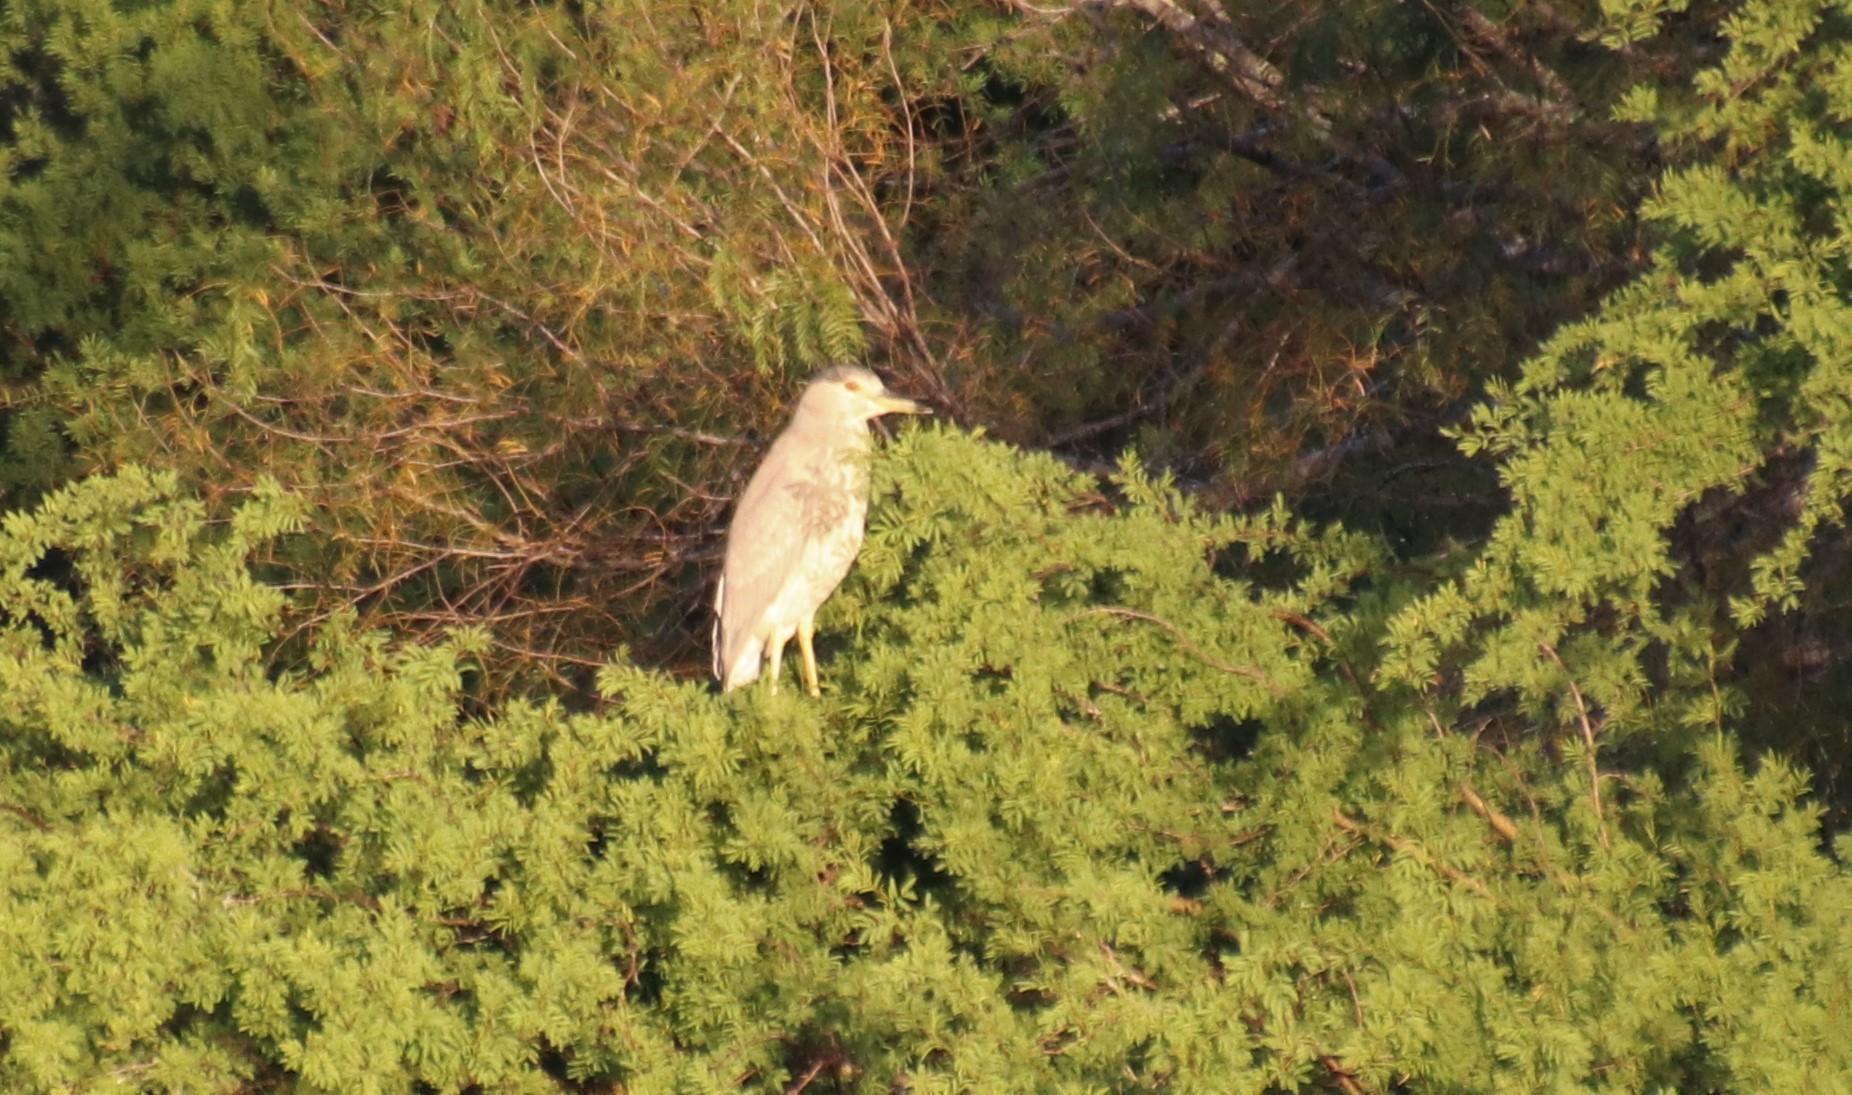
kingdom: Animalia
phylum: Chordata
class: Aves
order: Pelecaniformes
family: Ardeidae
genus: Nycticorax
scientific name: Nycticorax nycticorax
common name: Black-crowned night heron
